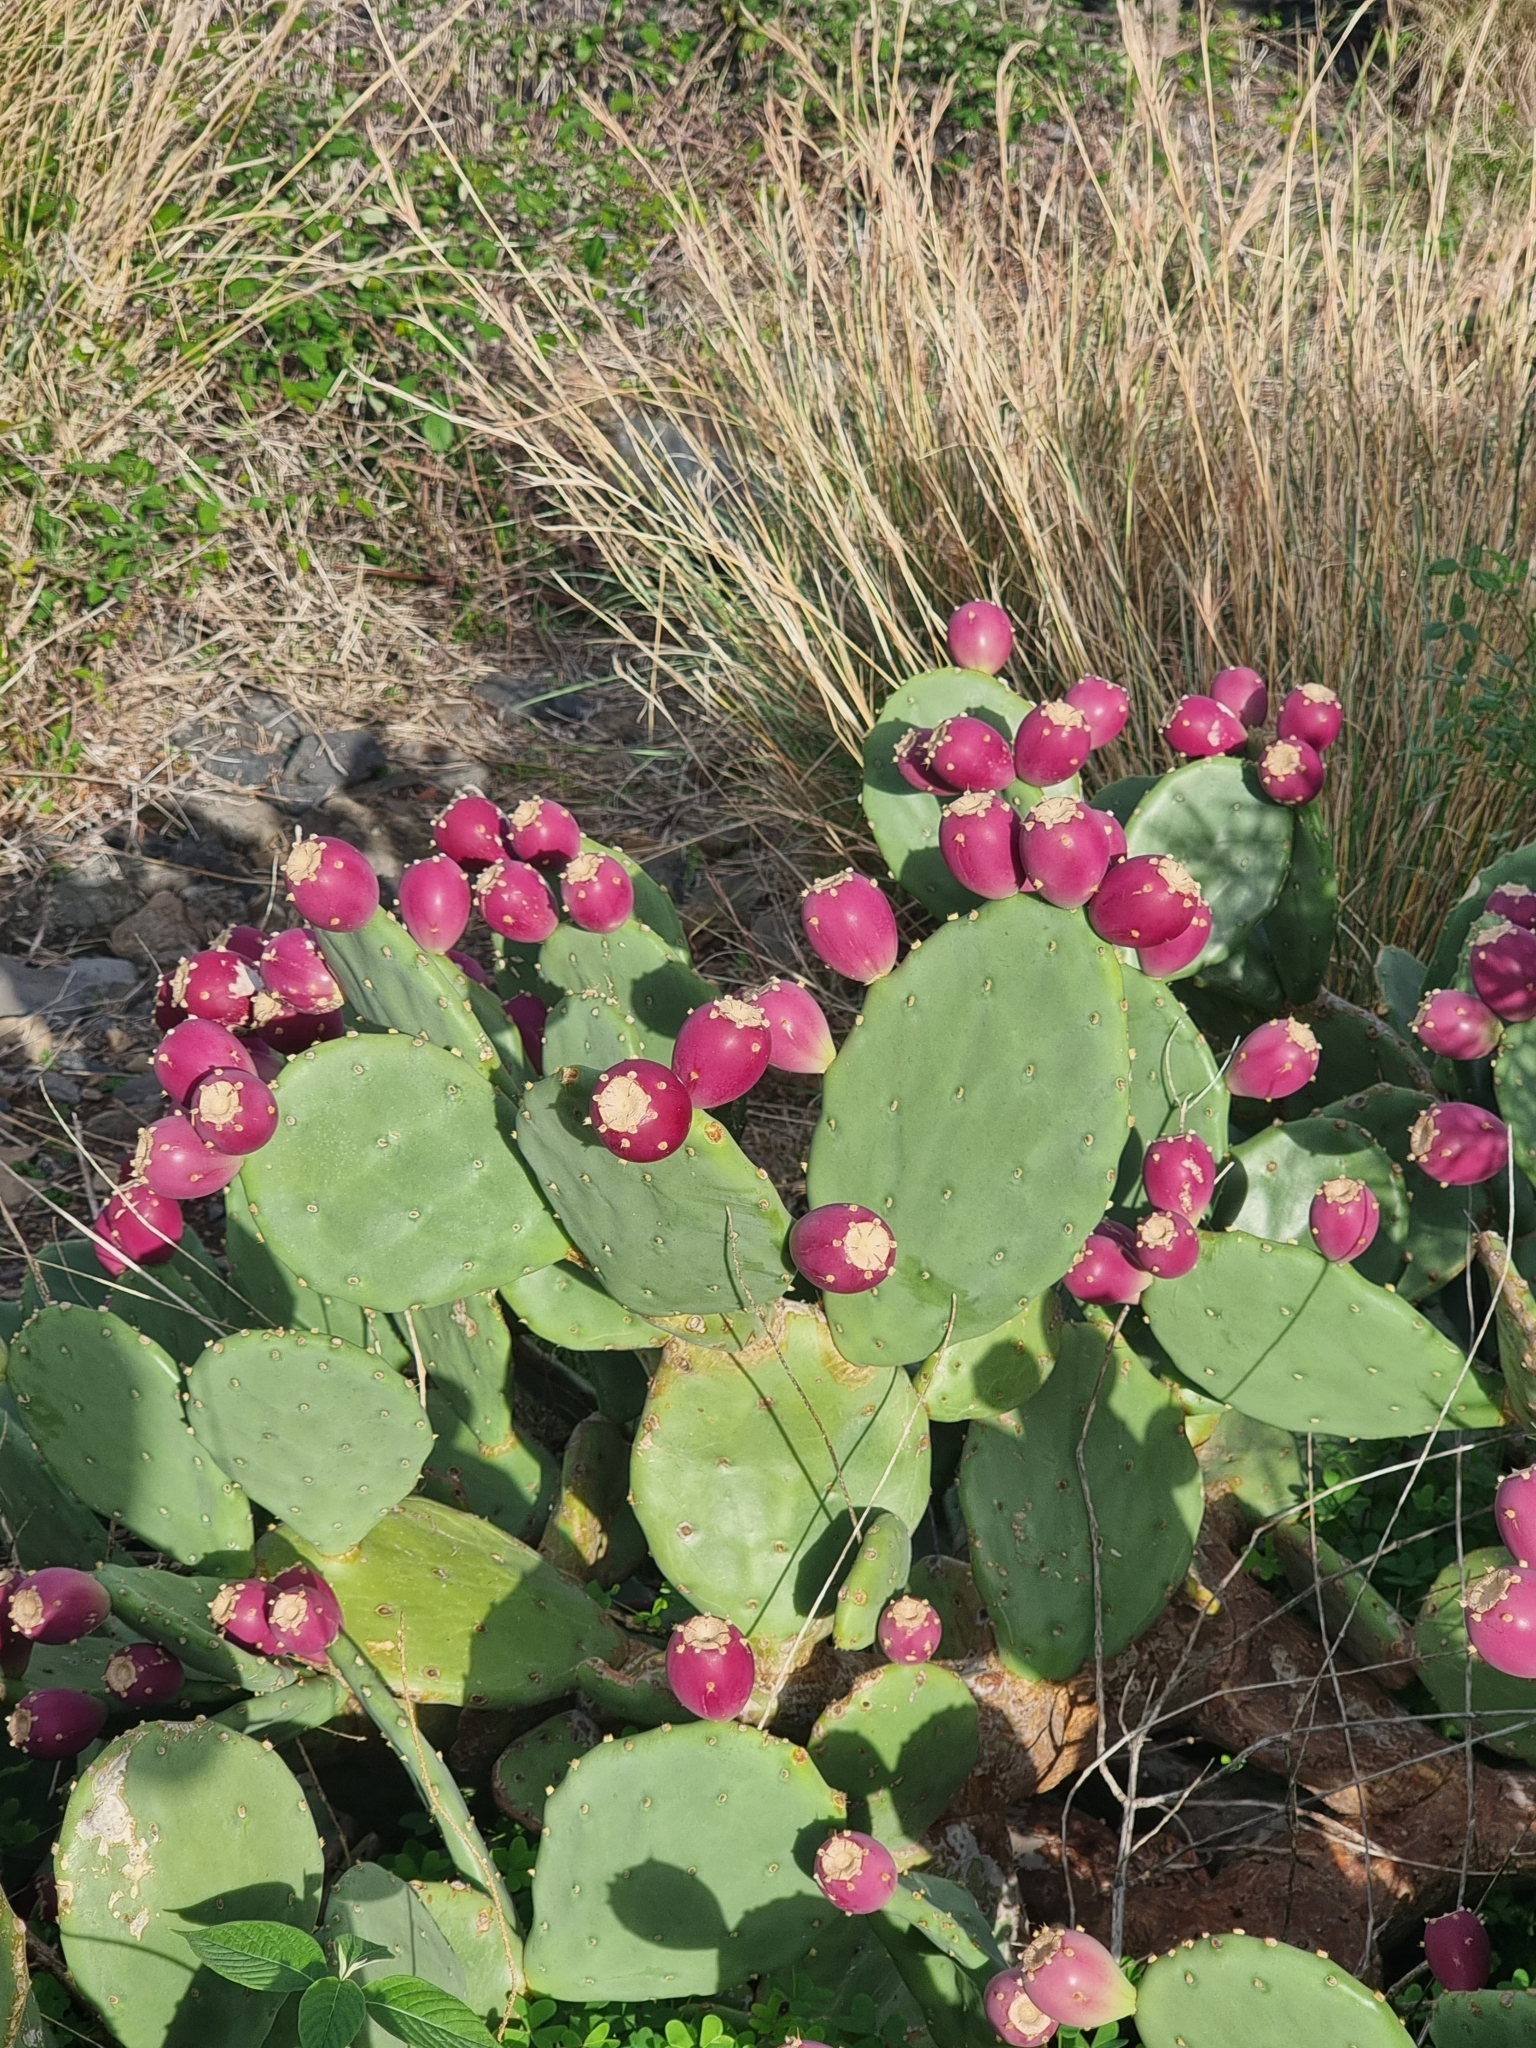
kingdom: Plantae
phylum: Tracheophyta
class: Magnoliopsida
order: Caryophyllales
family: Cactaceae
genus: Opuntia
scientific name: Opuntia anahuacensis
